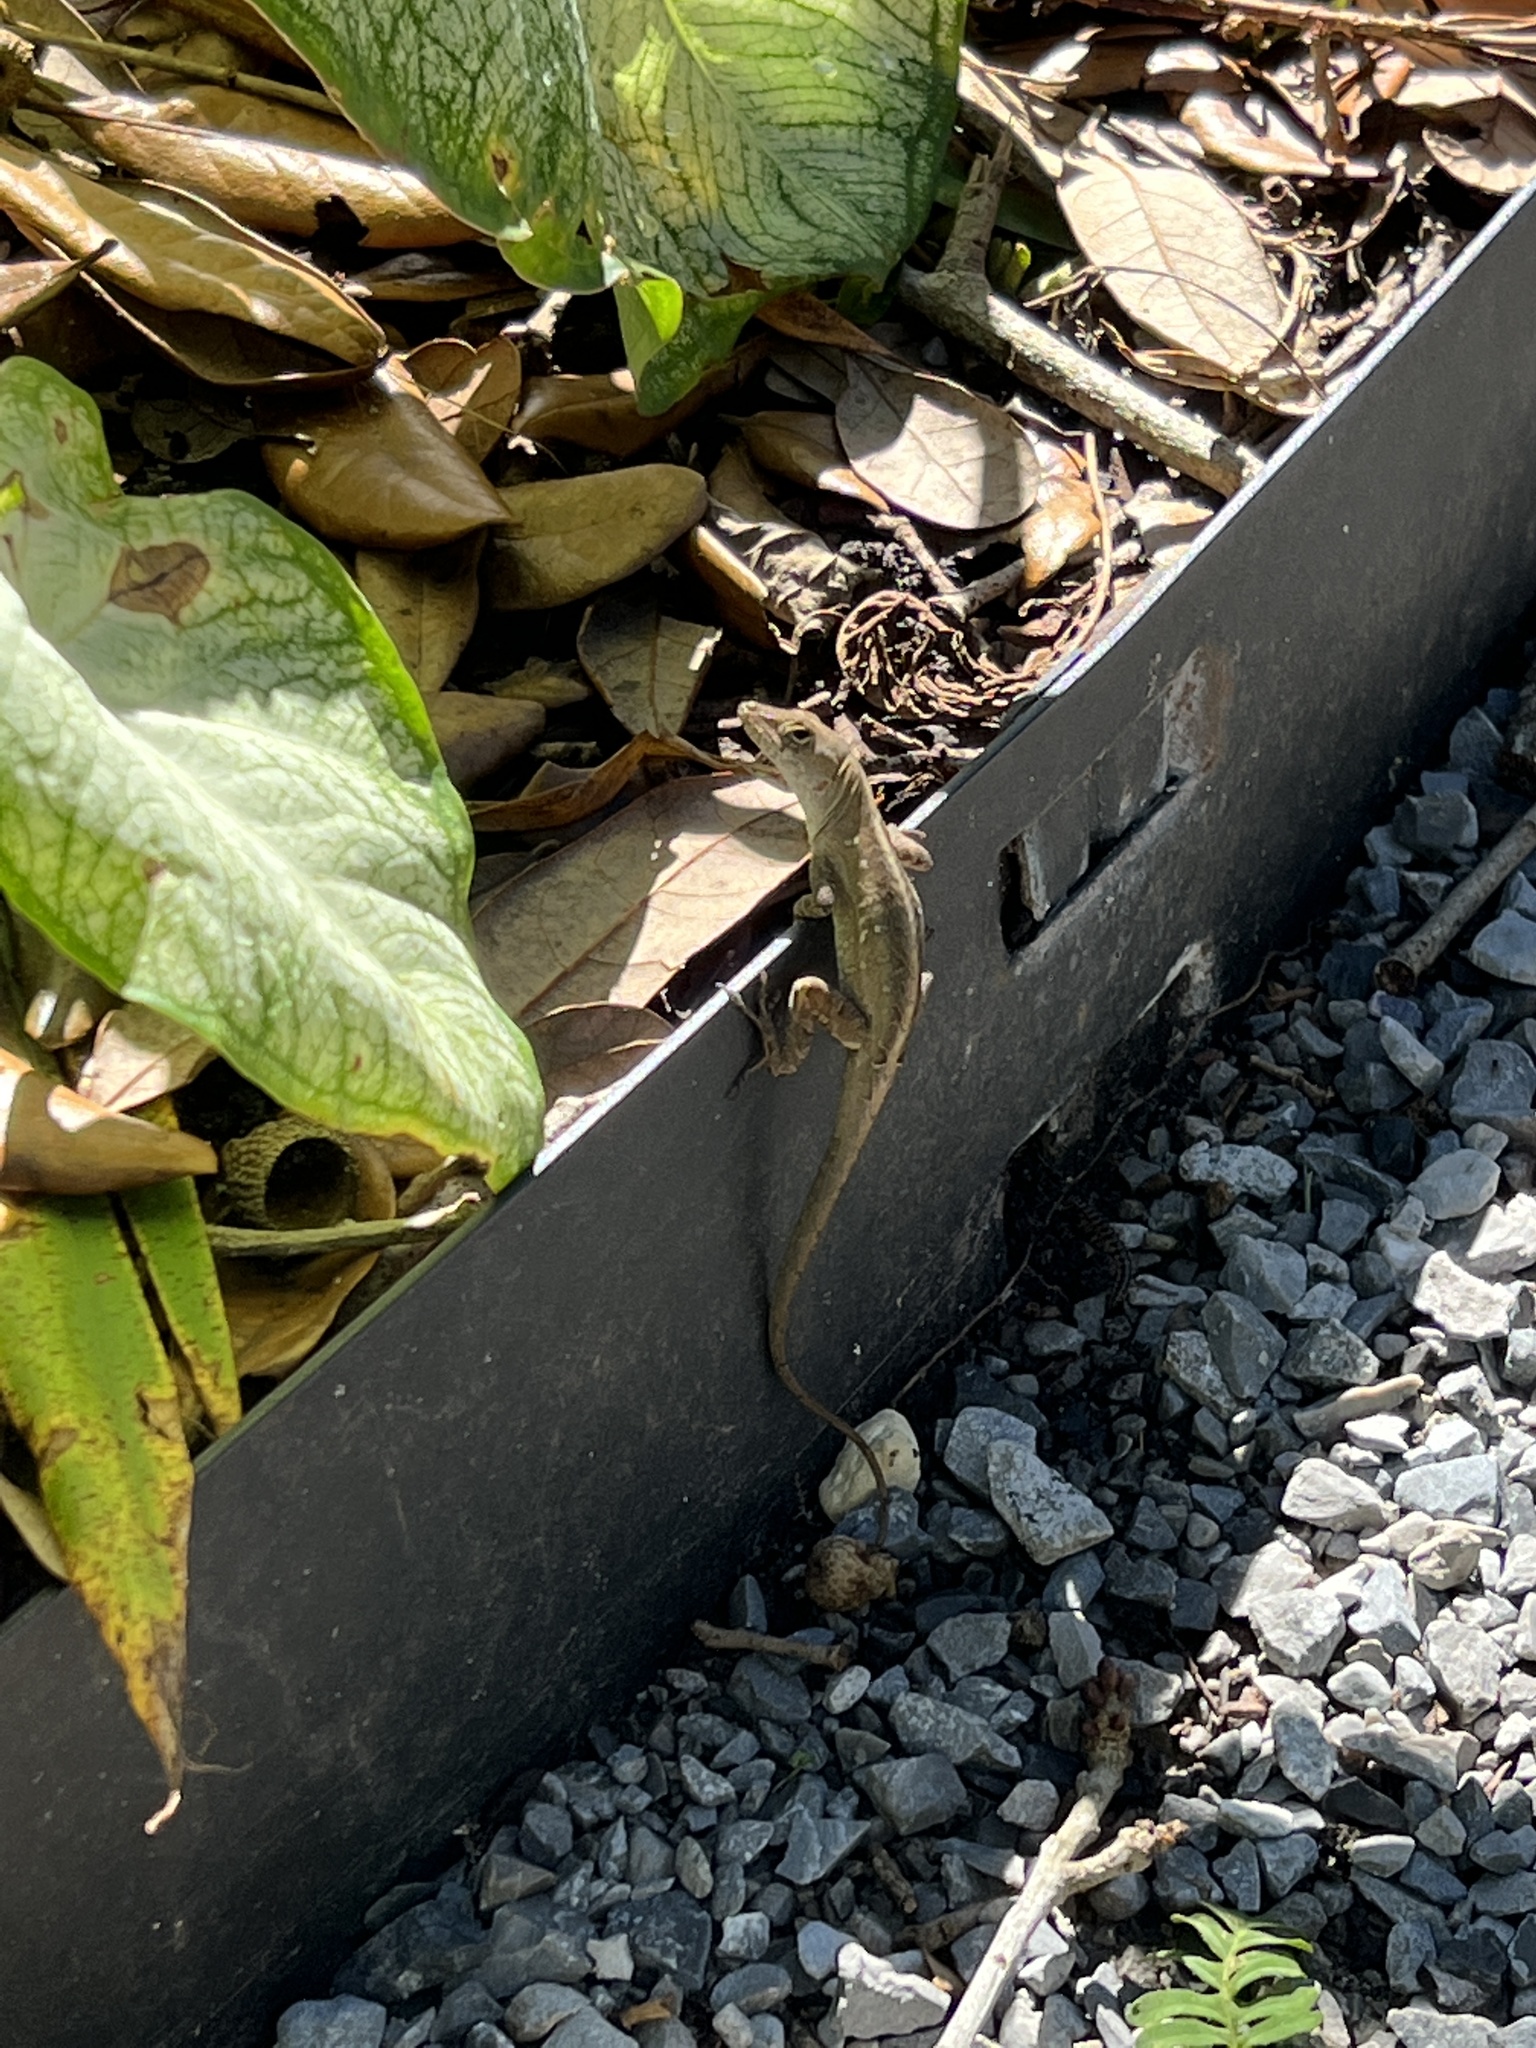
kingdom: Animalia
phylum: Chordata
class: Squamata
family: Dactyloidae
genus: Anolis
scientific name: Anolis sagrei
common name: Brown anole
